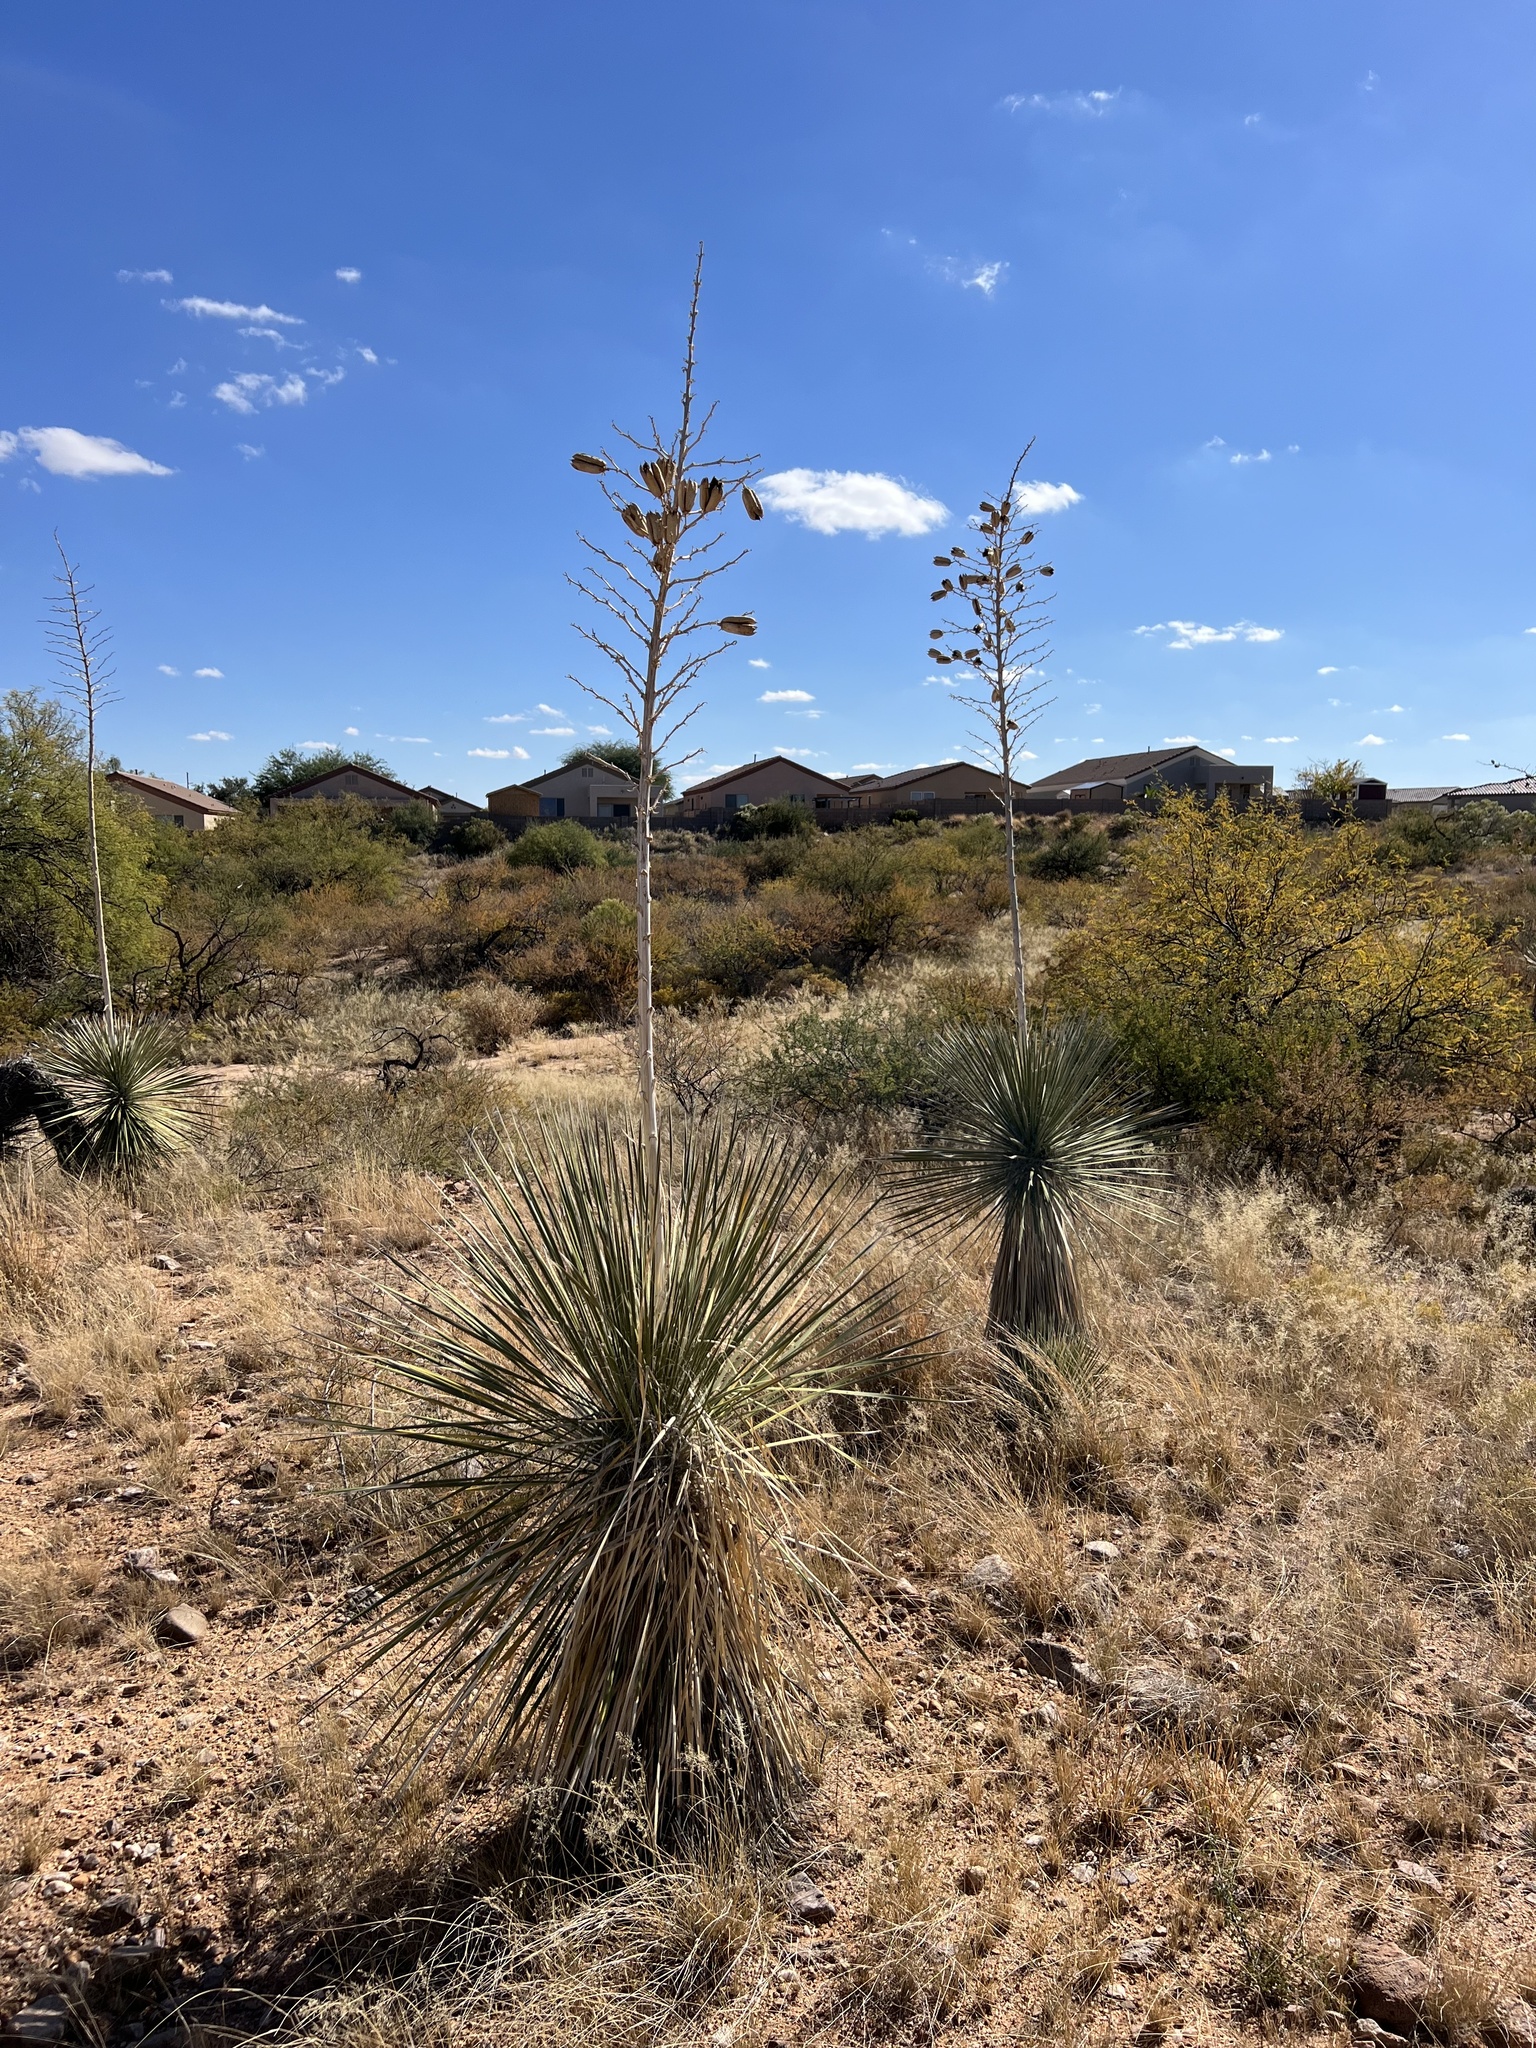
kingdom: Plantae
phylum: Tracheophyta
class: Liliopsida
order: Asparagales
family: Asparagaceae
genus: Yucca
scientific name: Yucca elata
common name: Palmella
